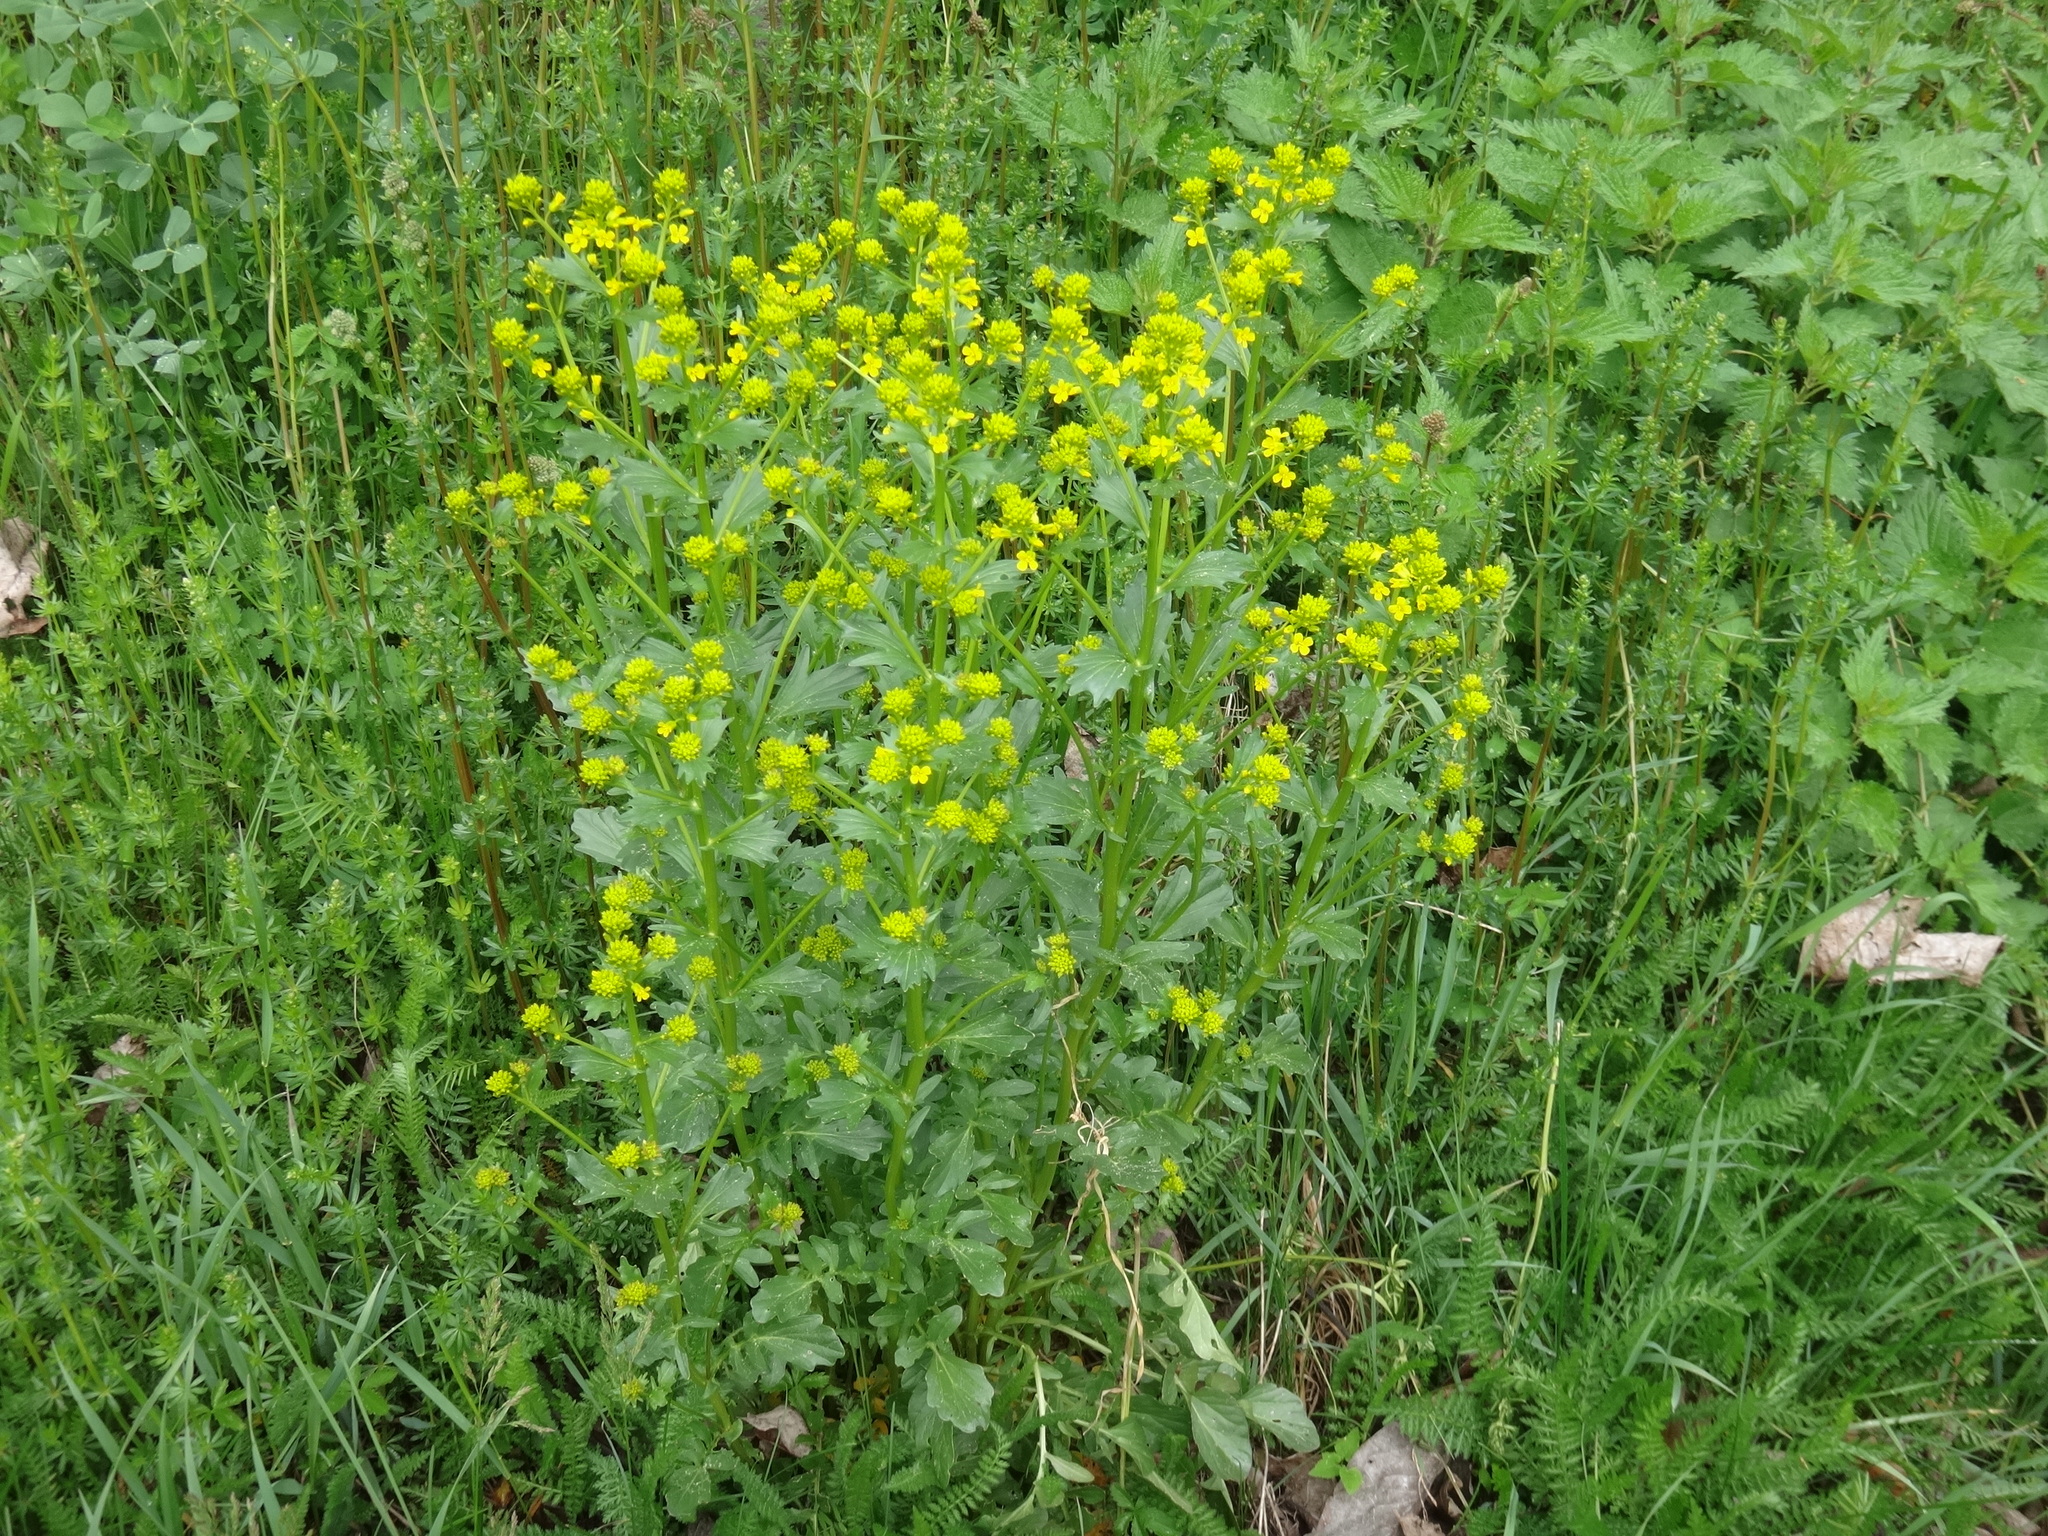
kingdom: Plantae
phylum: Tracheophyta
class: Magnoliopsida
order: Brassicales
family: Brassicaceae
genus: Barbarea
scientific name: Barbarea vulgaris
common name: Cressy-greens
